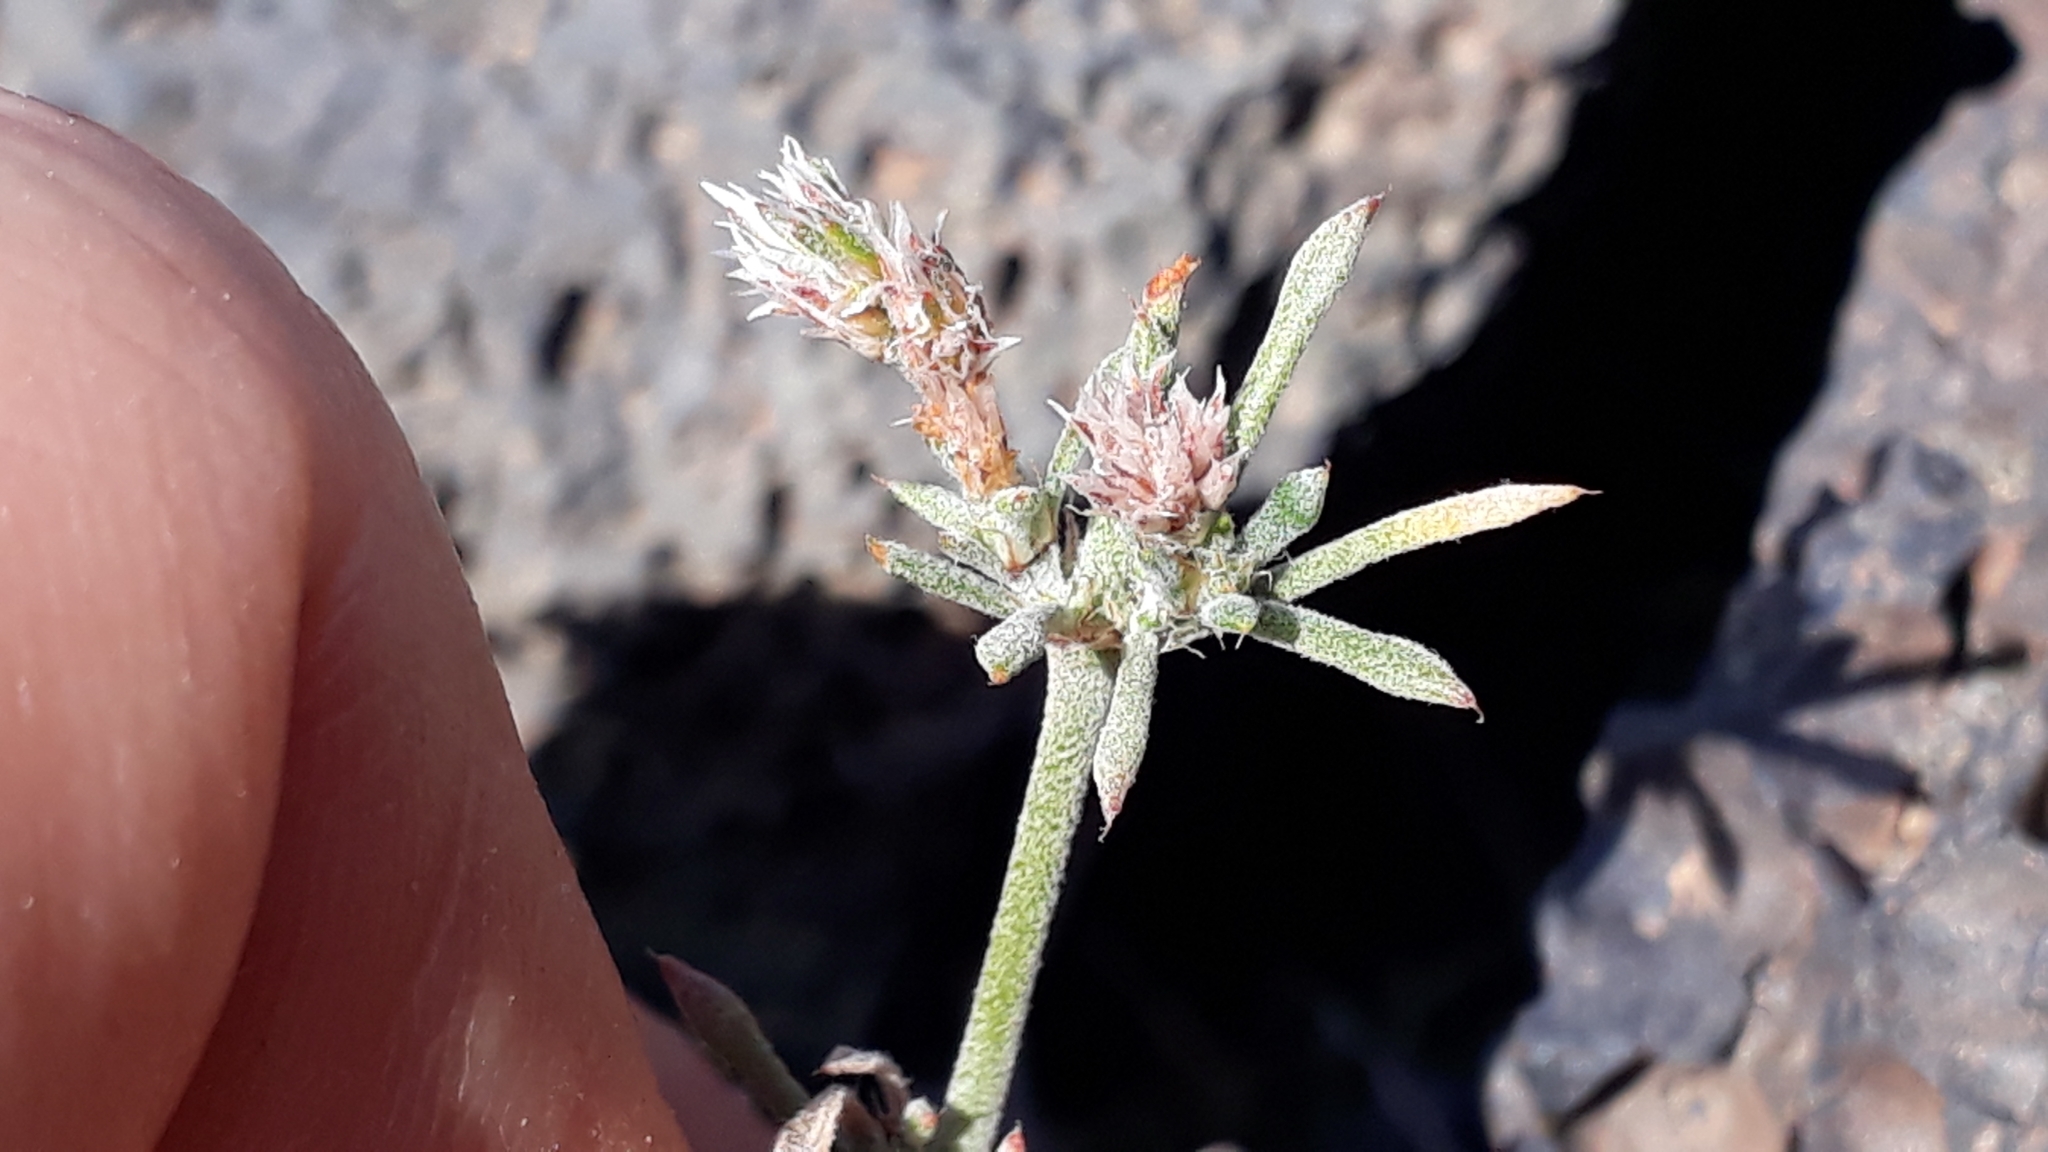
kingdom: Plantae
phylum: Tracheophyta
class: Magnoliopsida
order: Caryophyllales
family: Caryophyllaceae
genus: Polycarpaea
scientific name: Polycarpaea aristata
